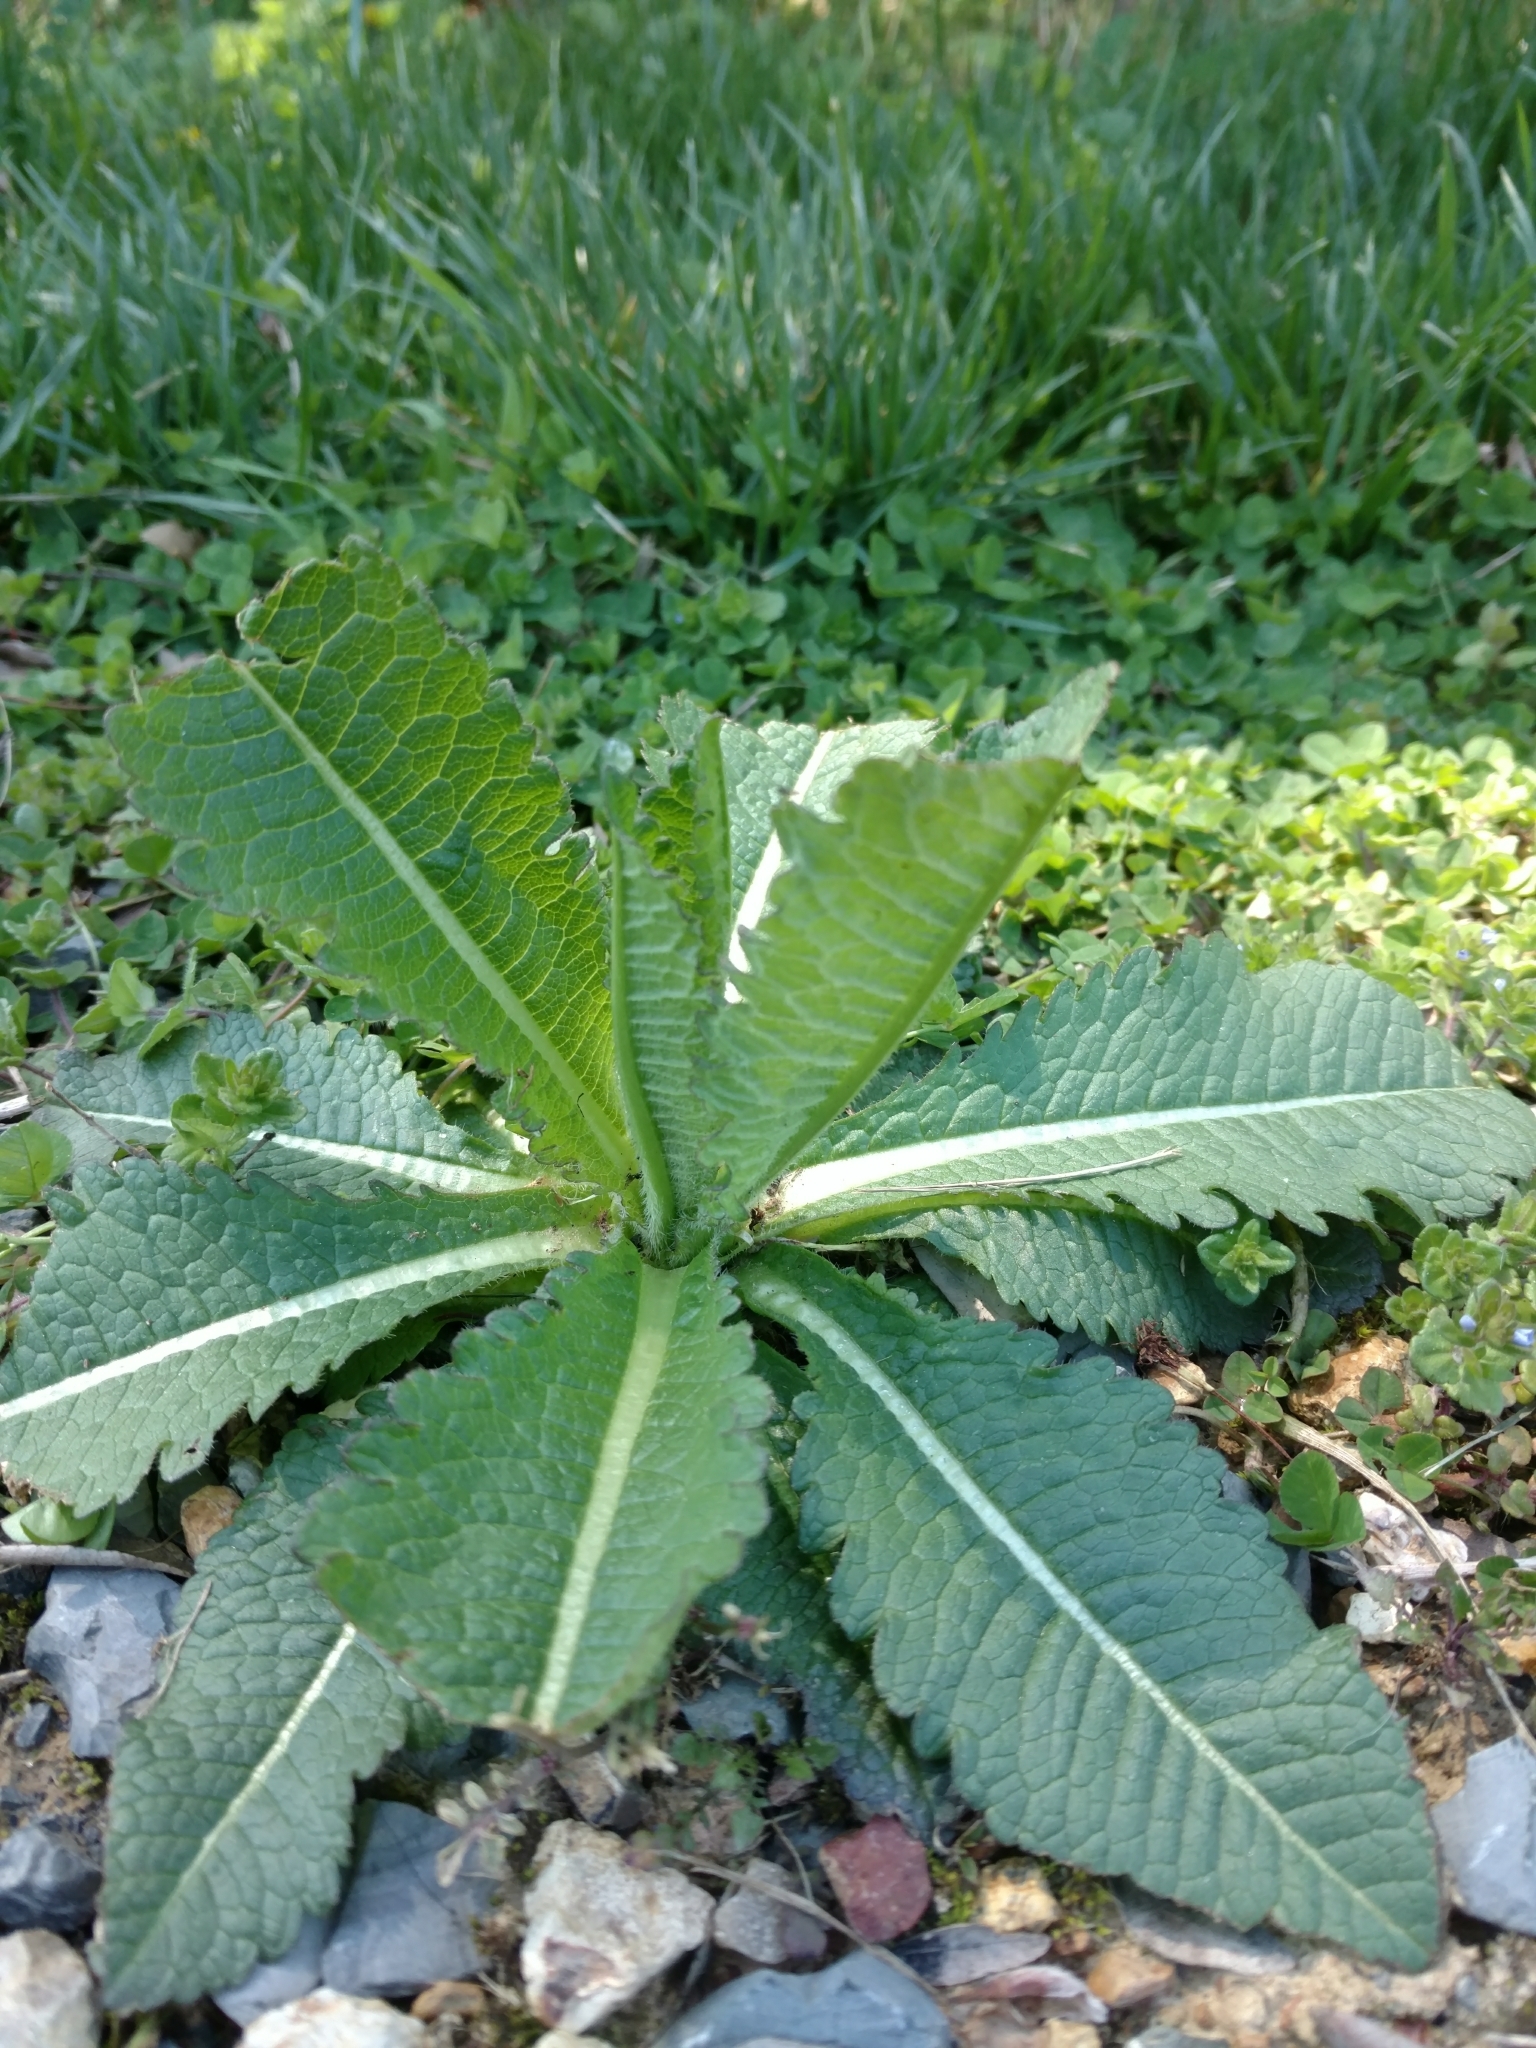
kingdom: Plantae
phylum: Tracheophyta
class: Magnoliopsida
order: Dipsacales
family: Caprifoliaceae
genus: Dipsacus
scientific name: Dipsacus laciniatus
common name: Cut-leaved teasel
